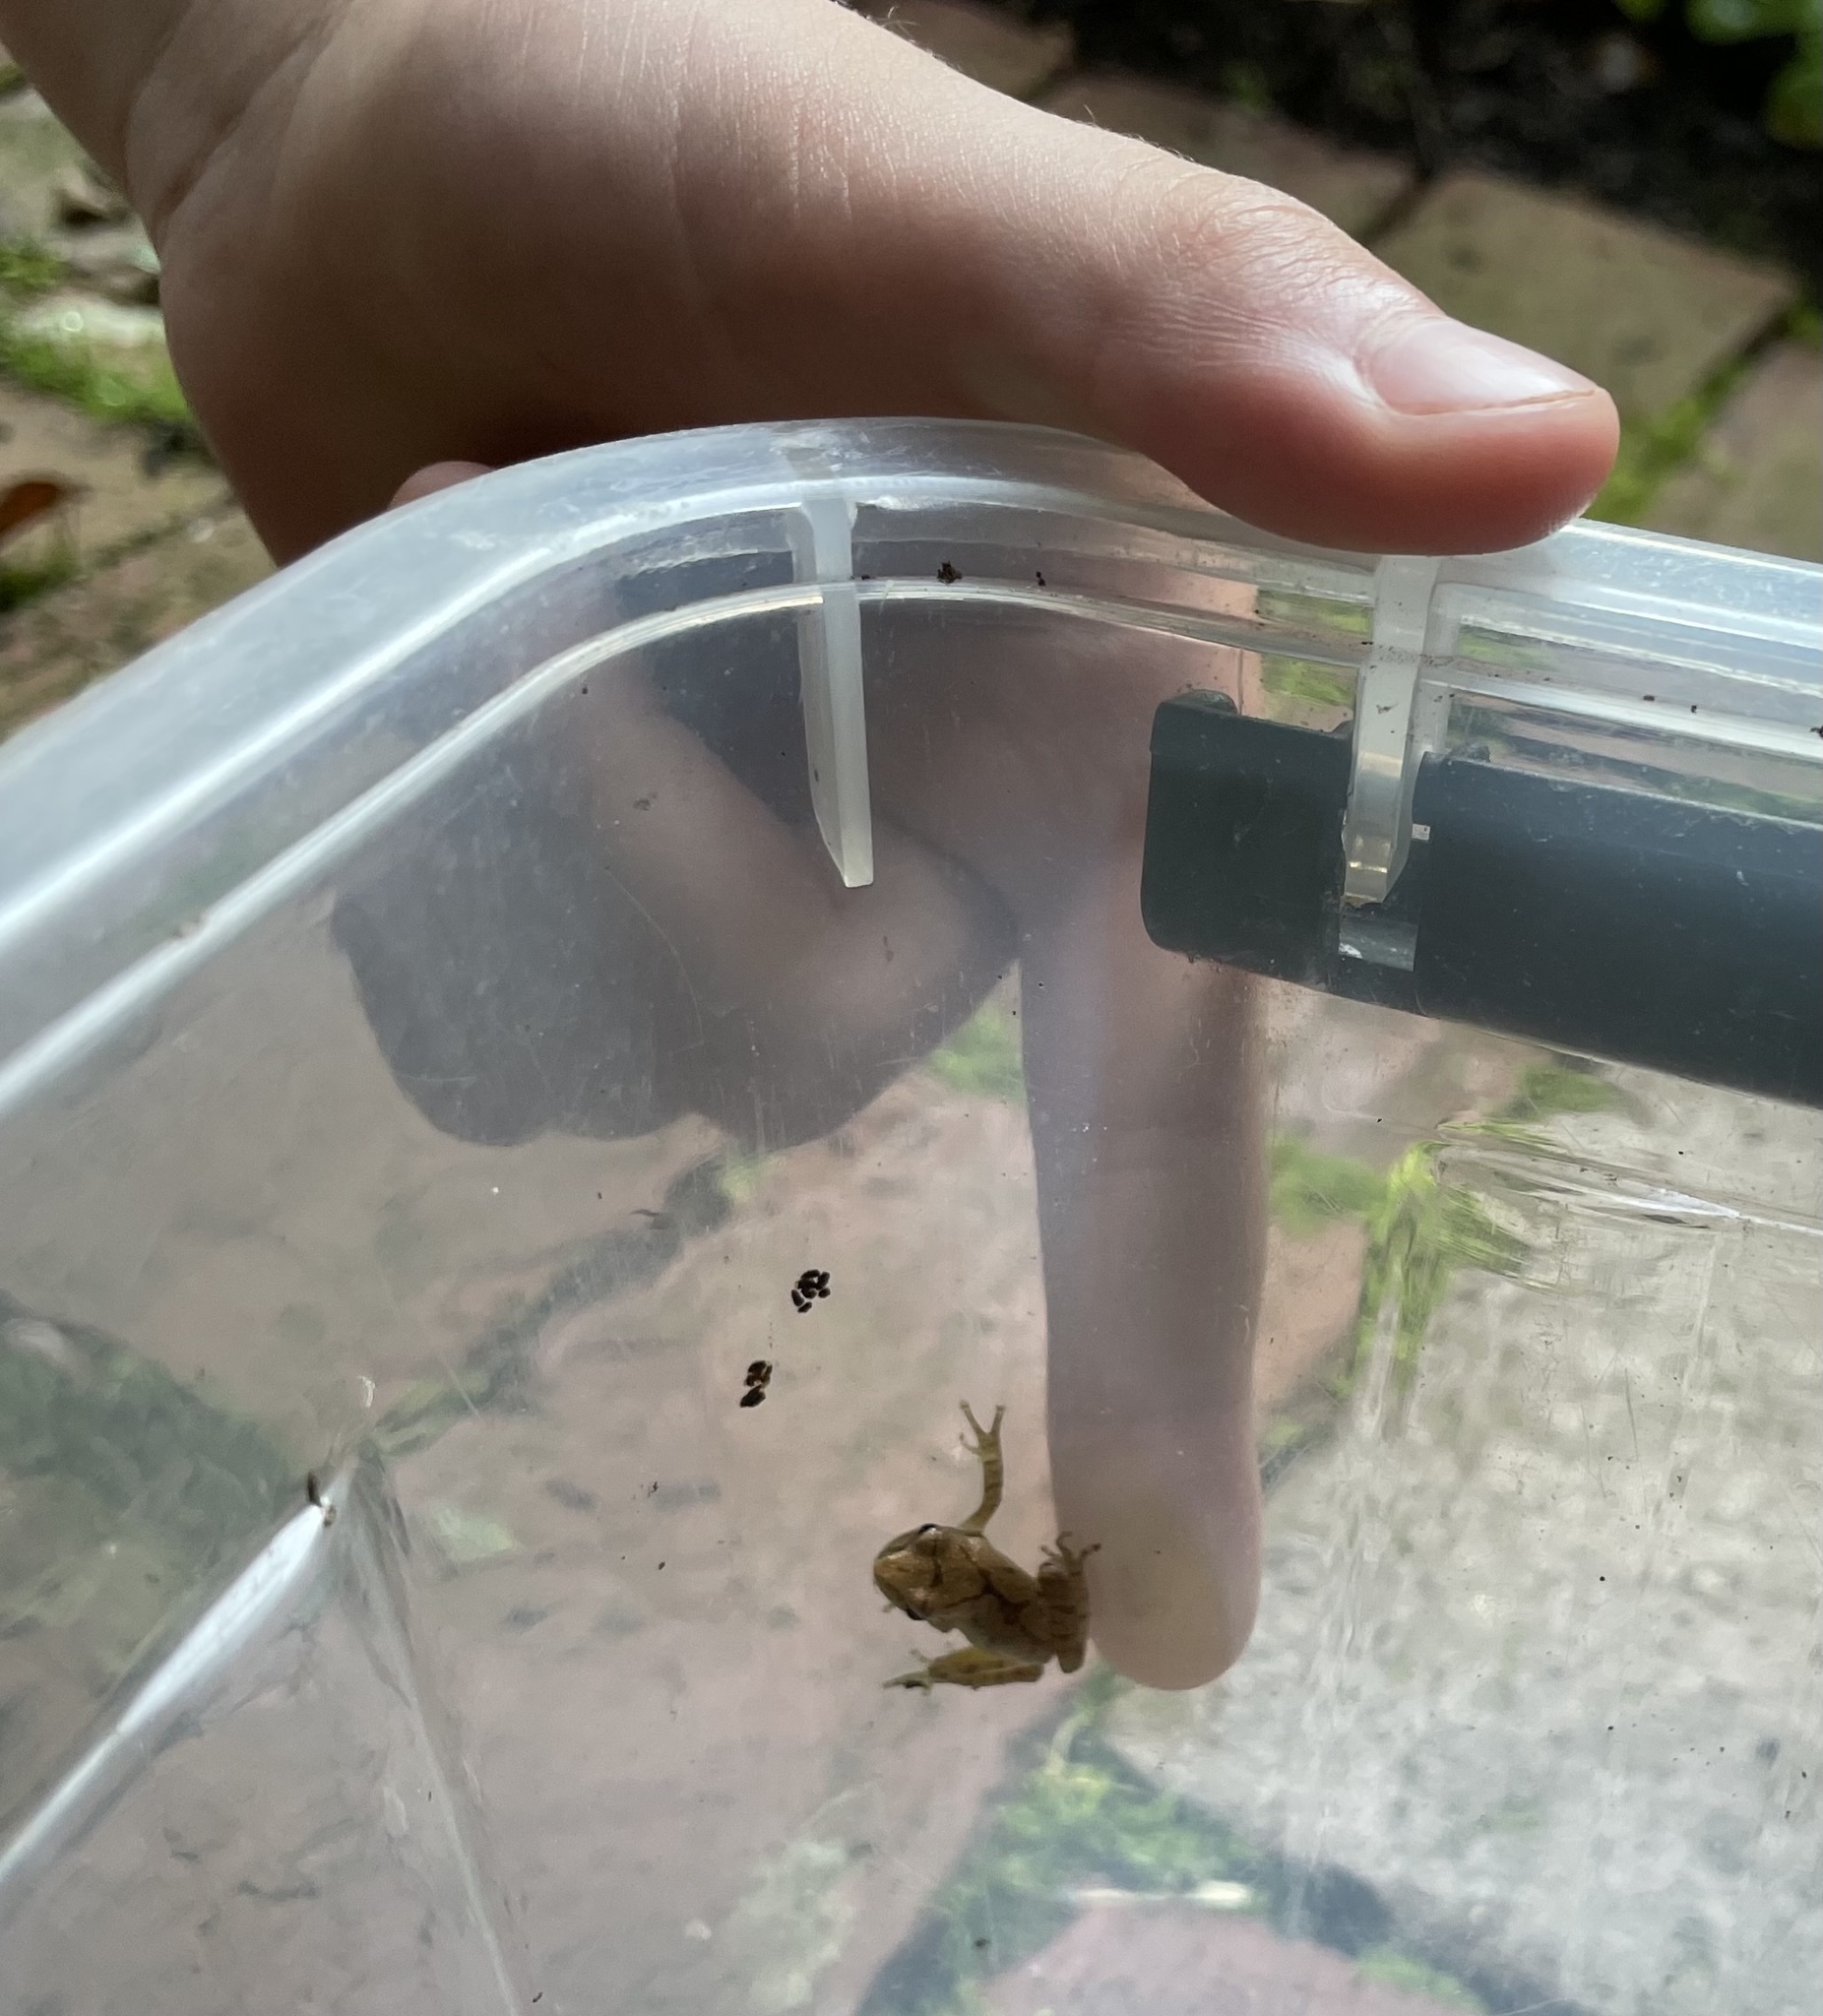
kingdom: Animalia
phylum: Chordata
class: Amphibia
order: Anura
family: Hylidae
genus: Pseudacris
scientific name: Pseudacris crucifer
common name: Spring peeper
